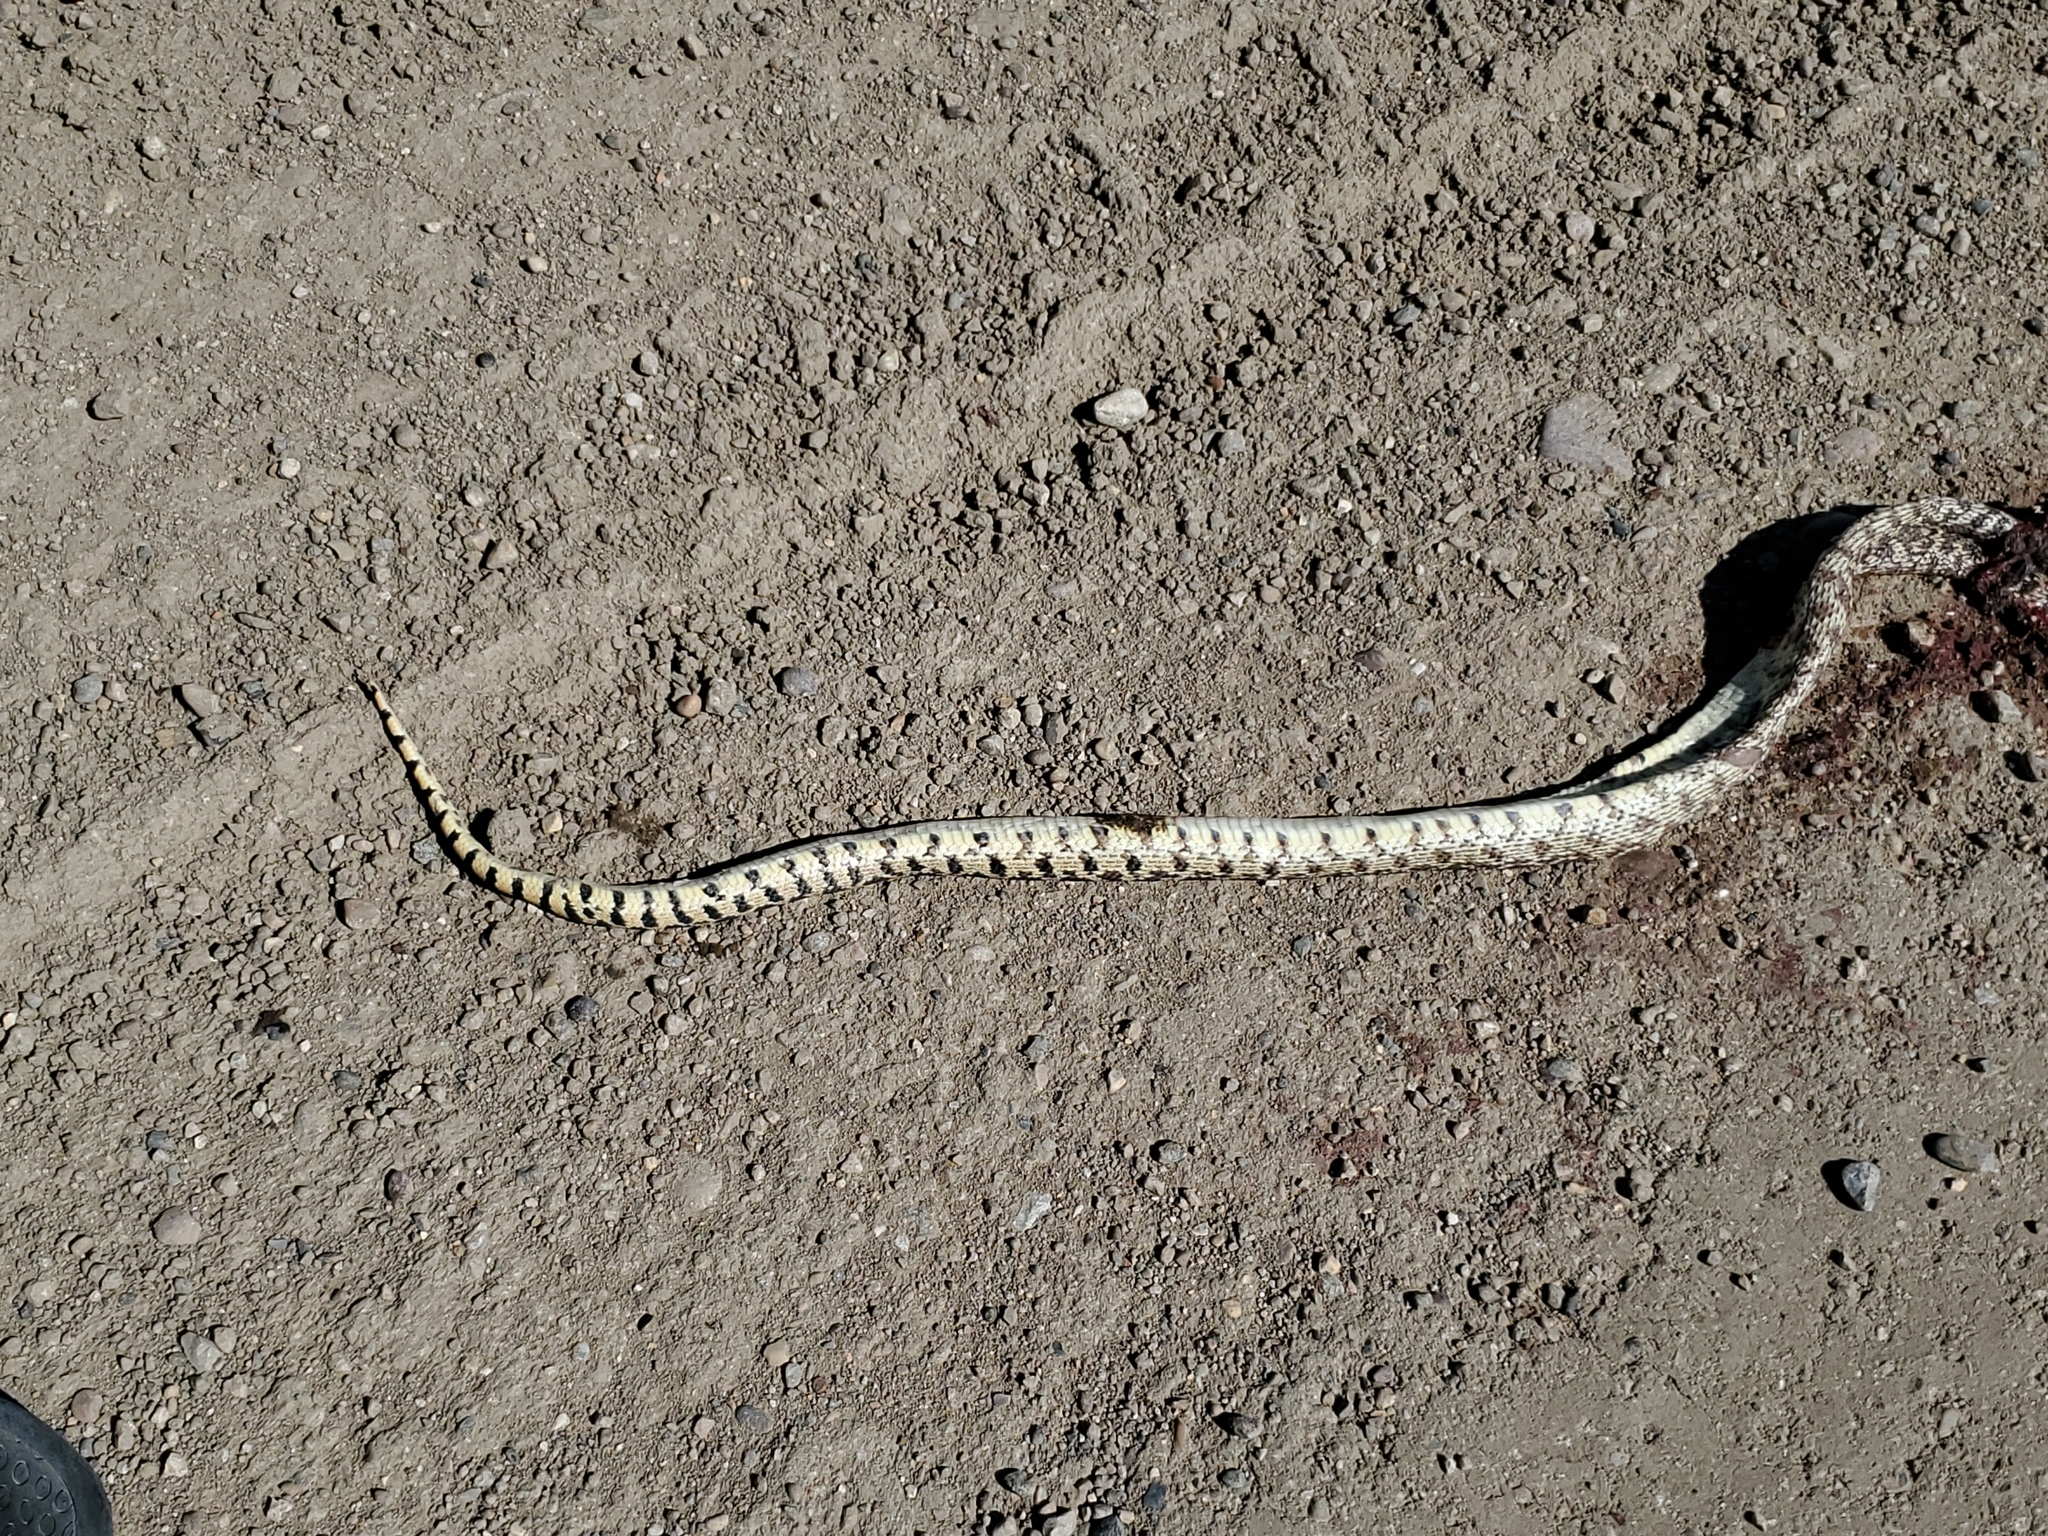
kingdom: Animalia
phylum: Chordata
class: Squamata
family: Colubridae
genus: Pituophis
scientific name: Pituophis catenifer
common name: Gopher snake
